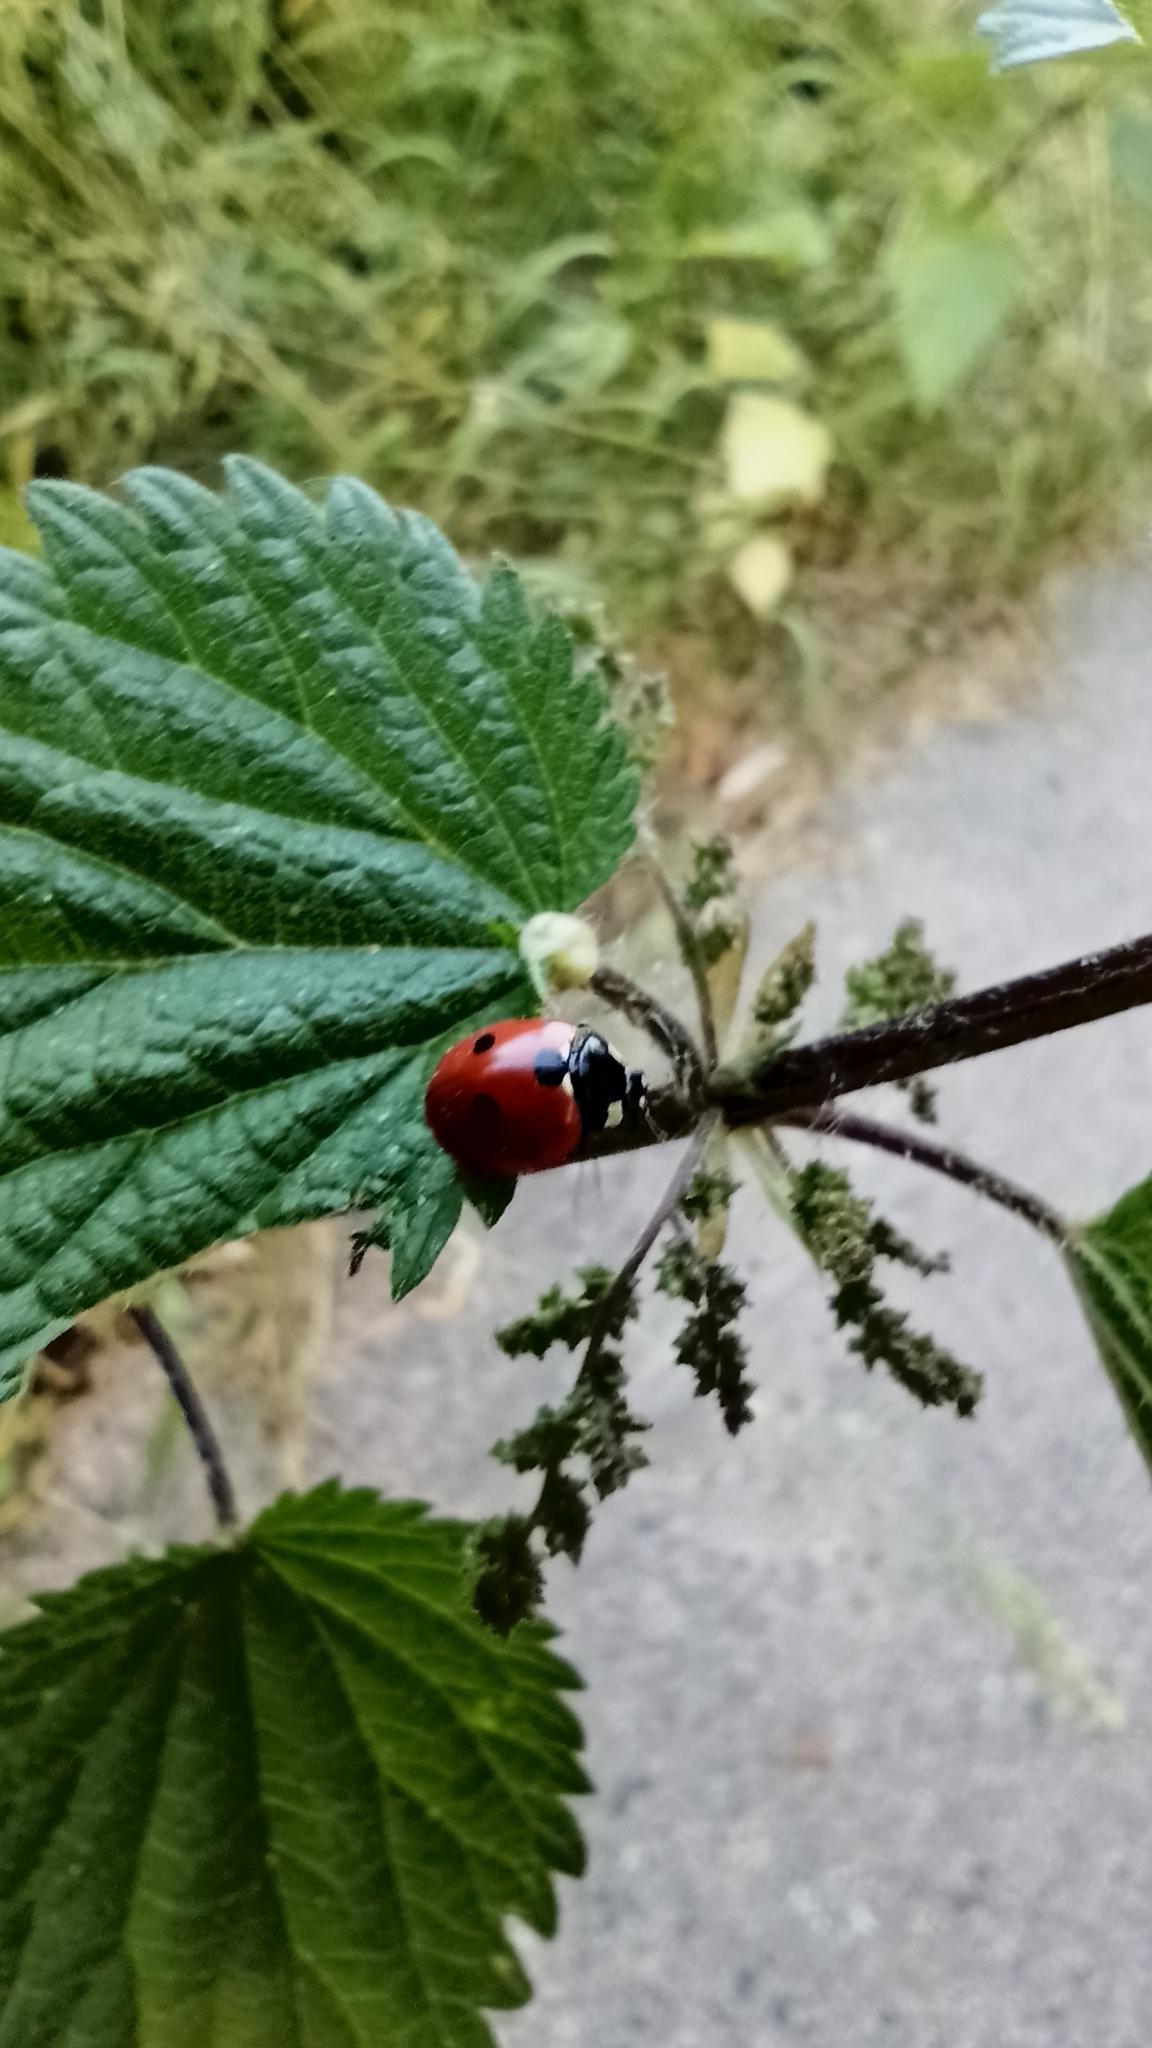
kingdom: Animalia
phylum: Arthropoda
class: Insecta
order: Coleoptera
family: Coccinellidae
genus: Coccinella
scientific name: Coccinella septempunctata
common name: Sevenspotted lady beetle
